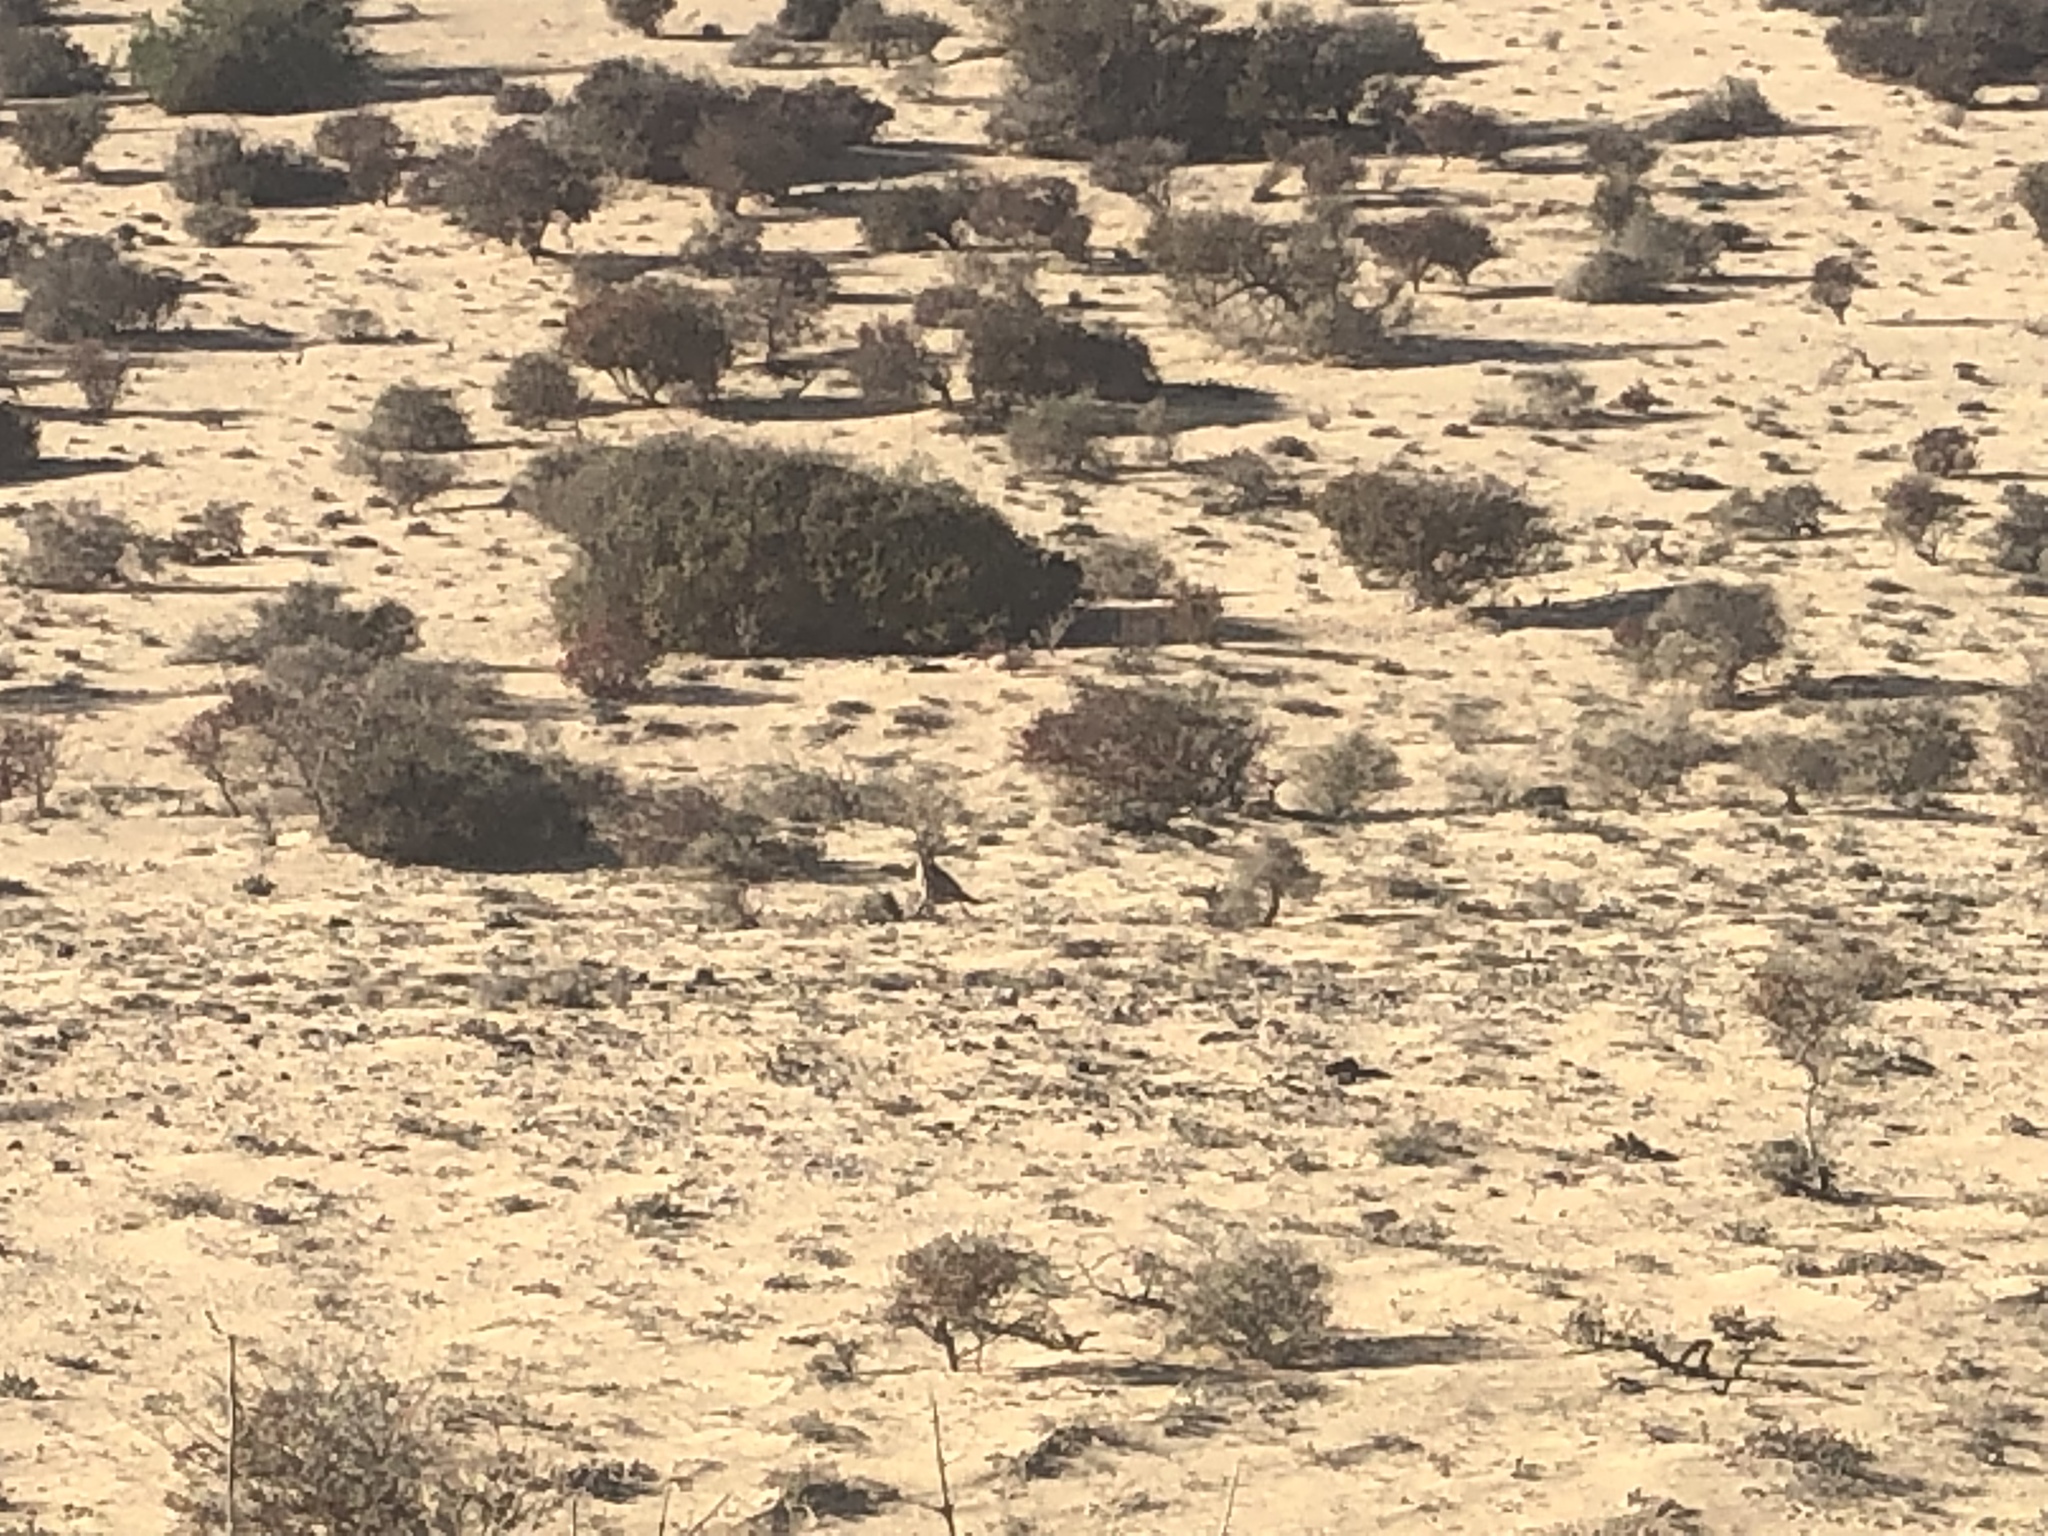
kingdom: Animalia
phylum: Chordata
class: Aves
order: Galliformes
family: Phasianidae
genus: Alectoris
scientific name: Alectoris barbara
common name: Barbary partridge
